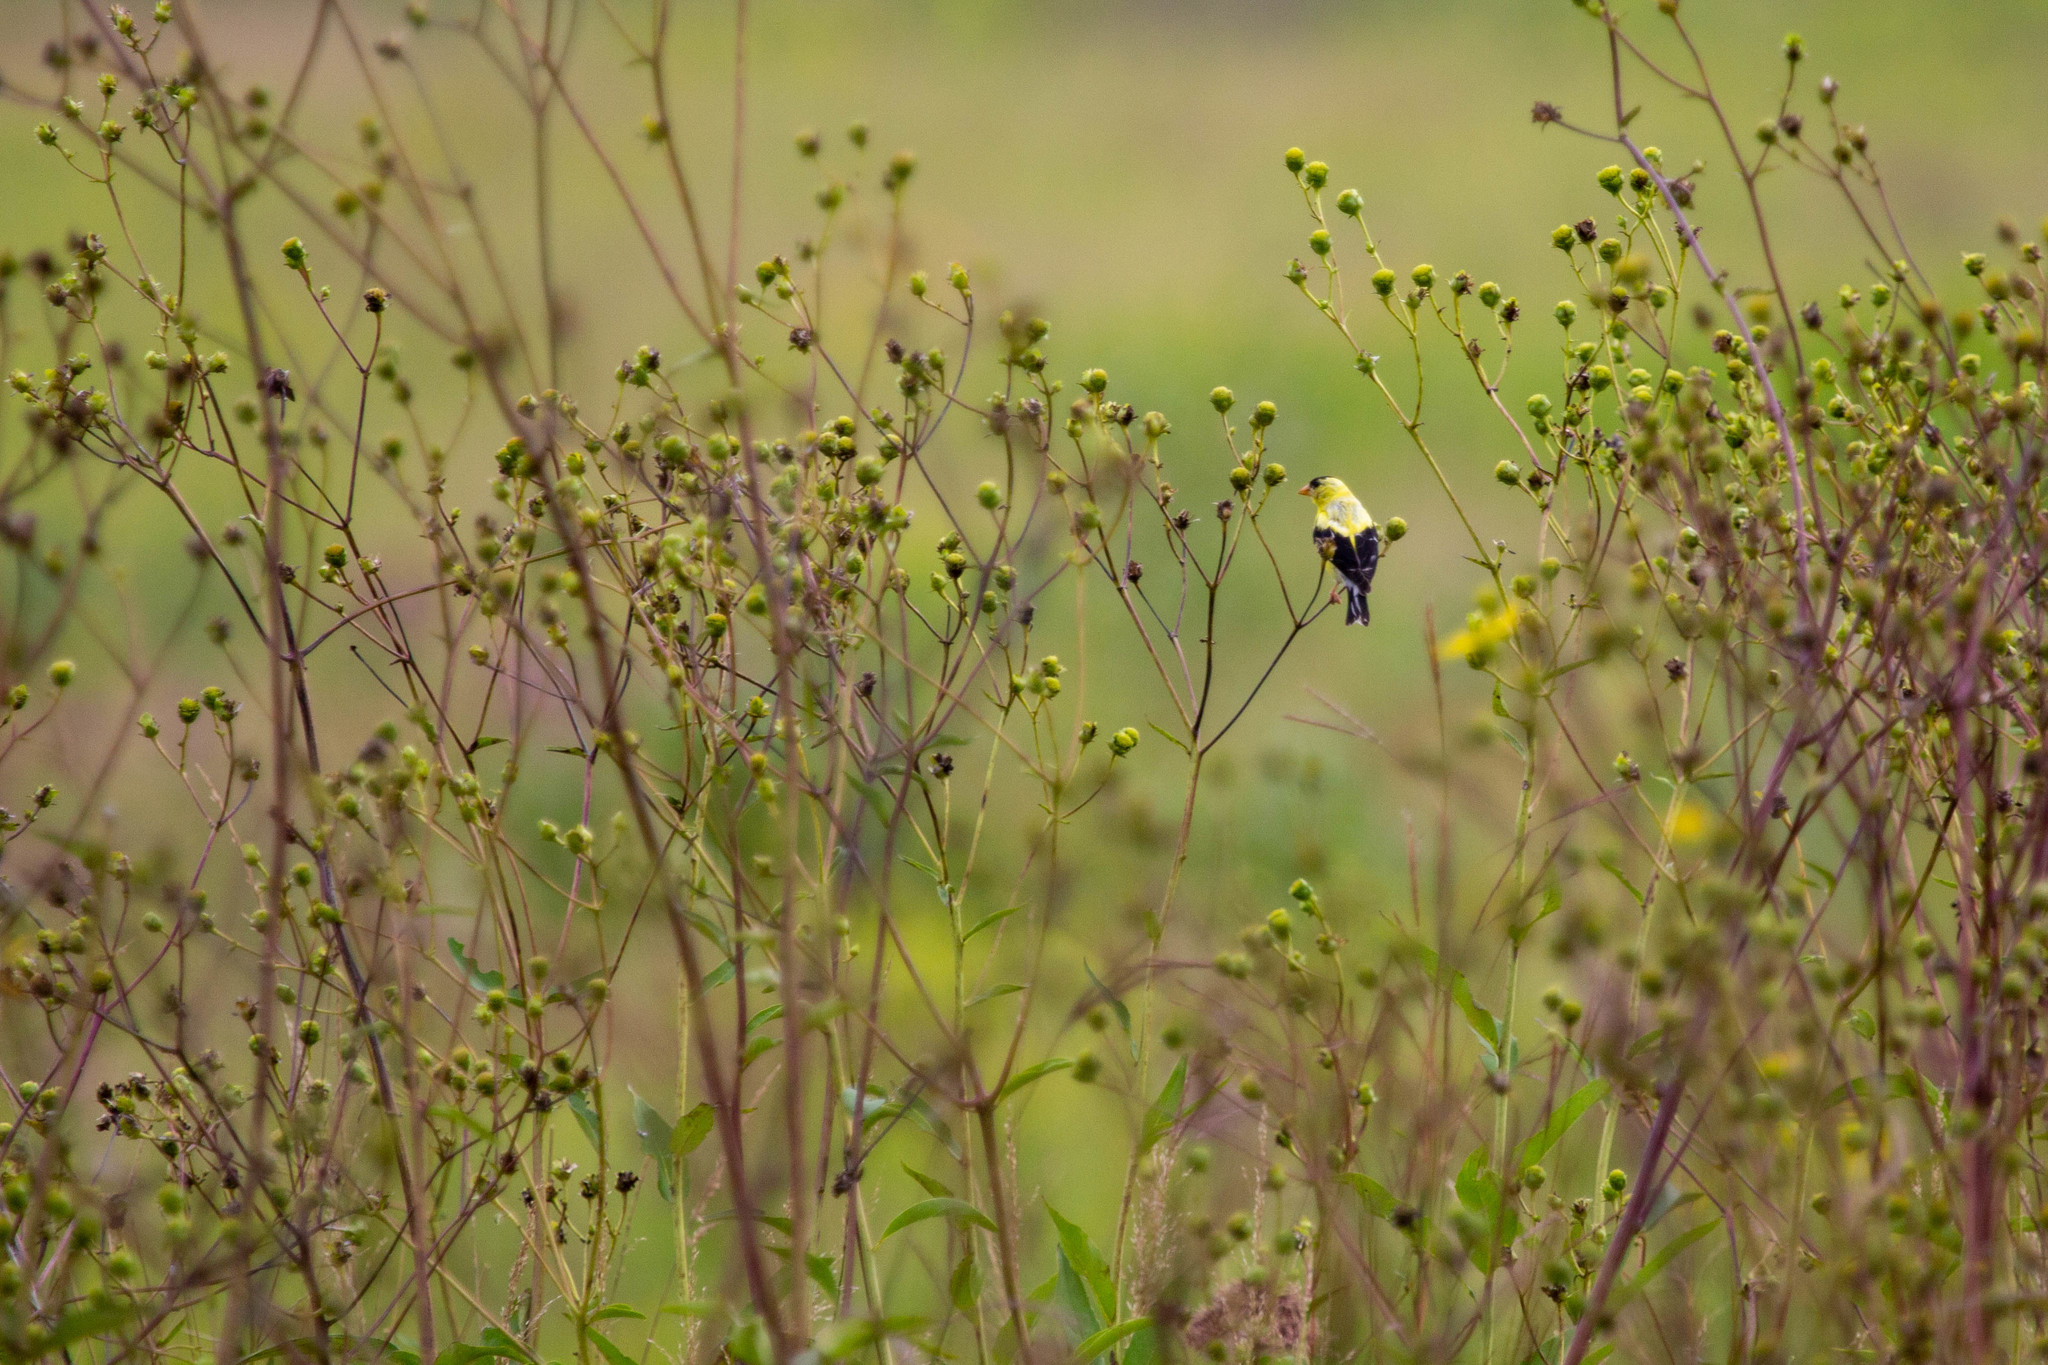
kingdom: Animalia
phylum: Chordata
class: Aves
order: Passeriformes
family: Fringillidae
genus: Spinus
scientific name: Spinus tristis
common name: American goldfinch
